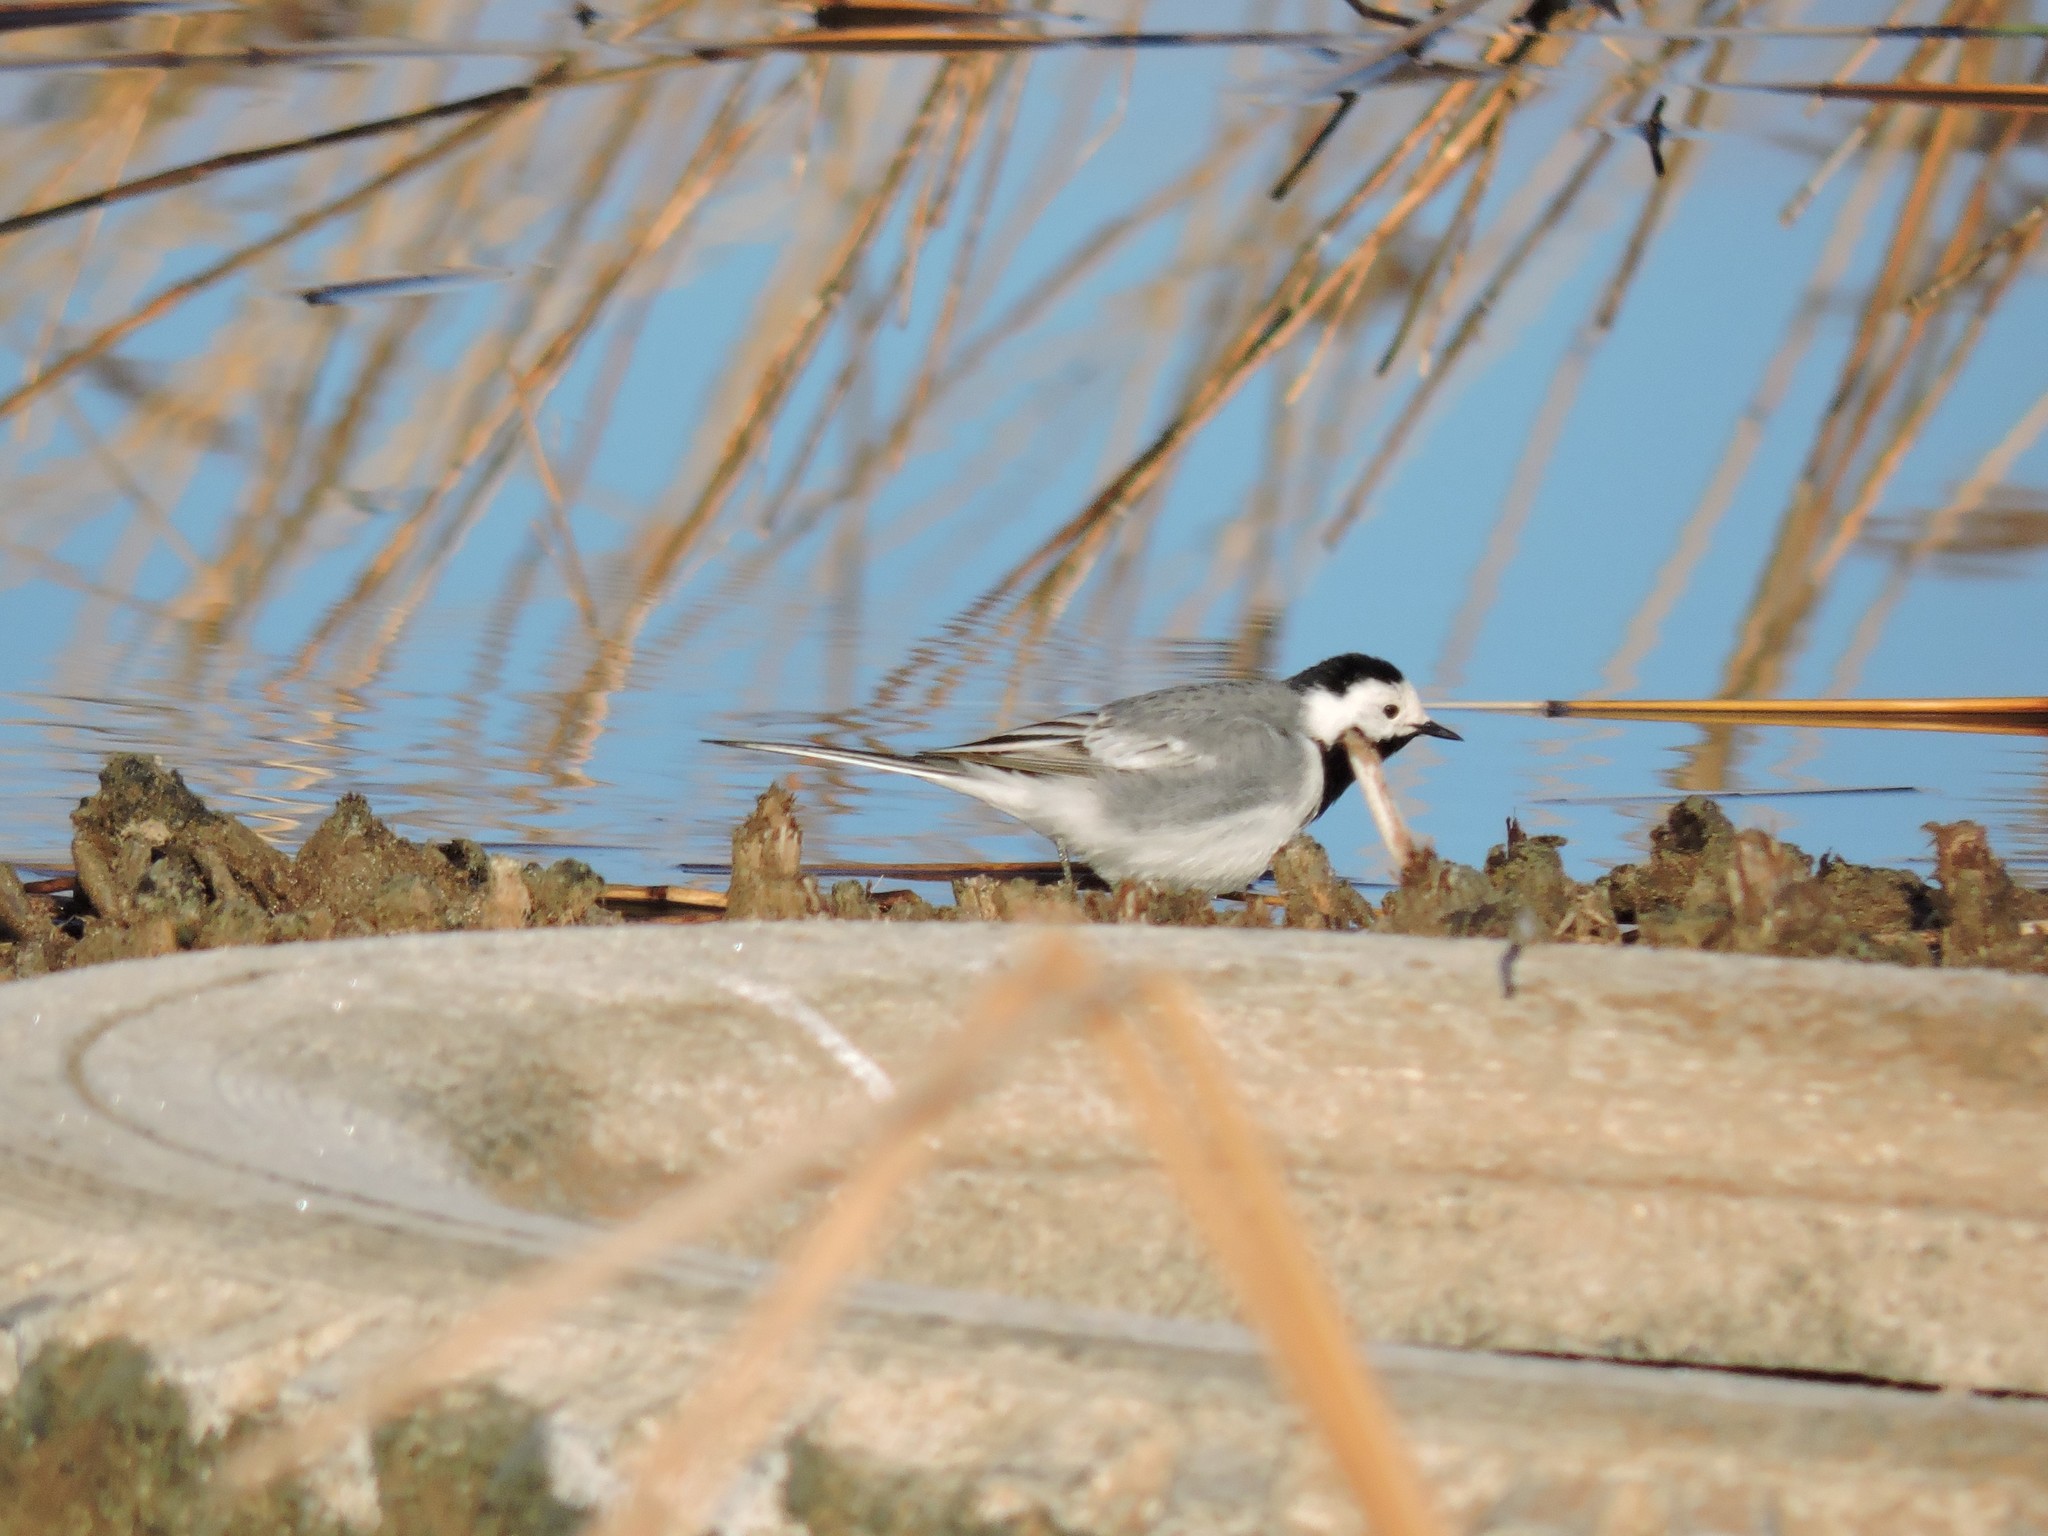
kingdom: Animalia
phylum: Chordata
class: Aves
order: Passeriformes
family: Motacillidae
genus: Motacilla
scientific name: Motacilla alba
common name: White wagtail
